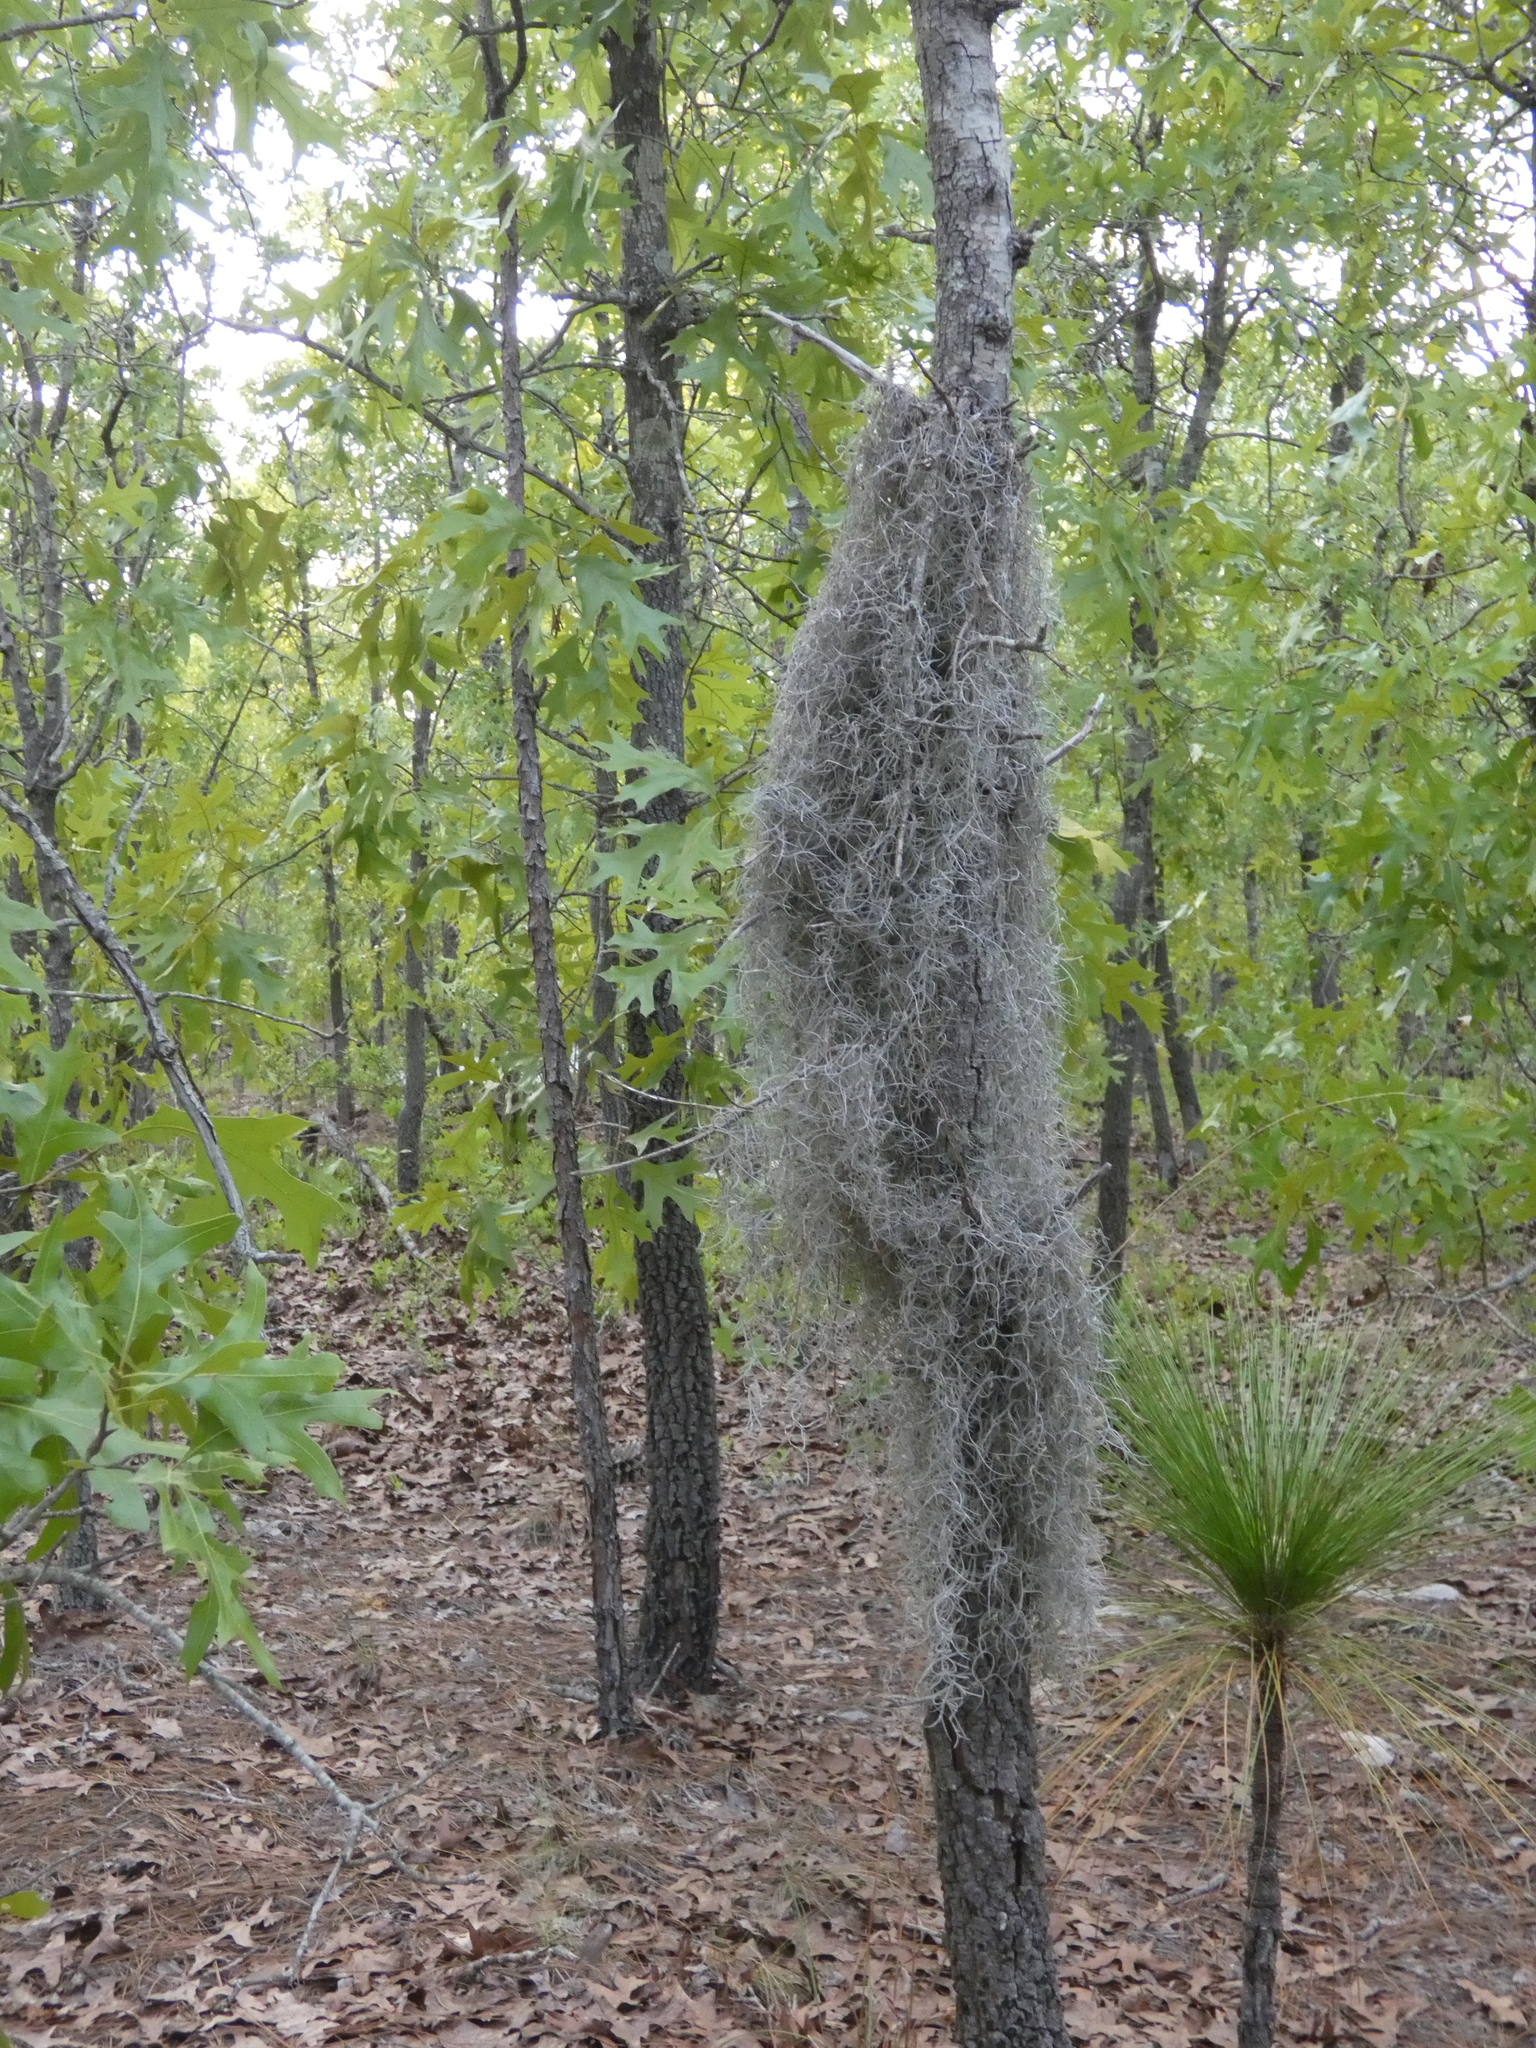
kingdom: Plantae
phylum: Tracheophyta
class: Liliopsida
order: Poales
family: Bromeliaceae
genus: Tillandsia
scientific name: Tillandsia usneoides
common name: Spanish moss
